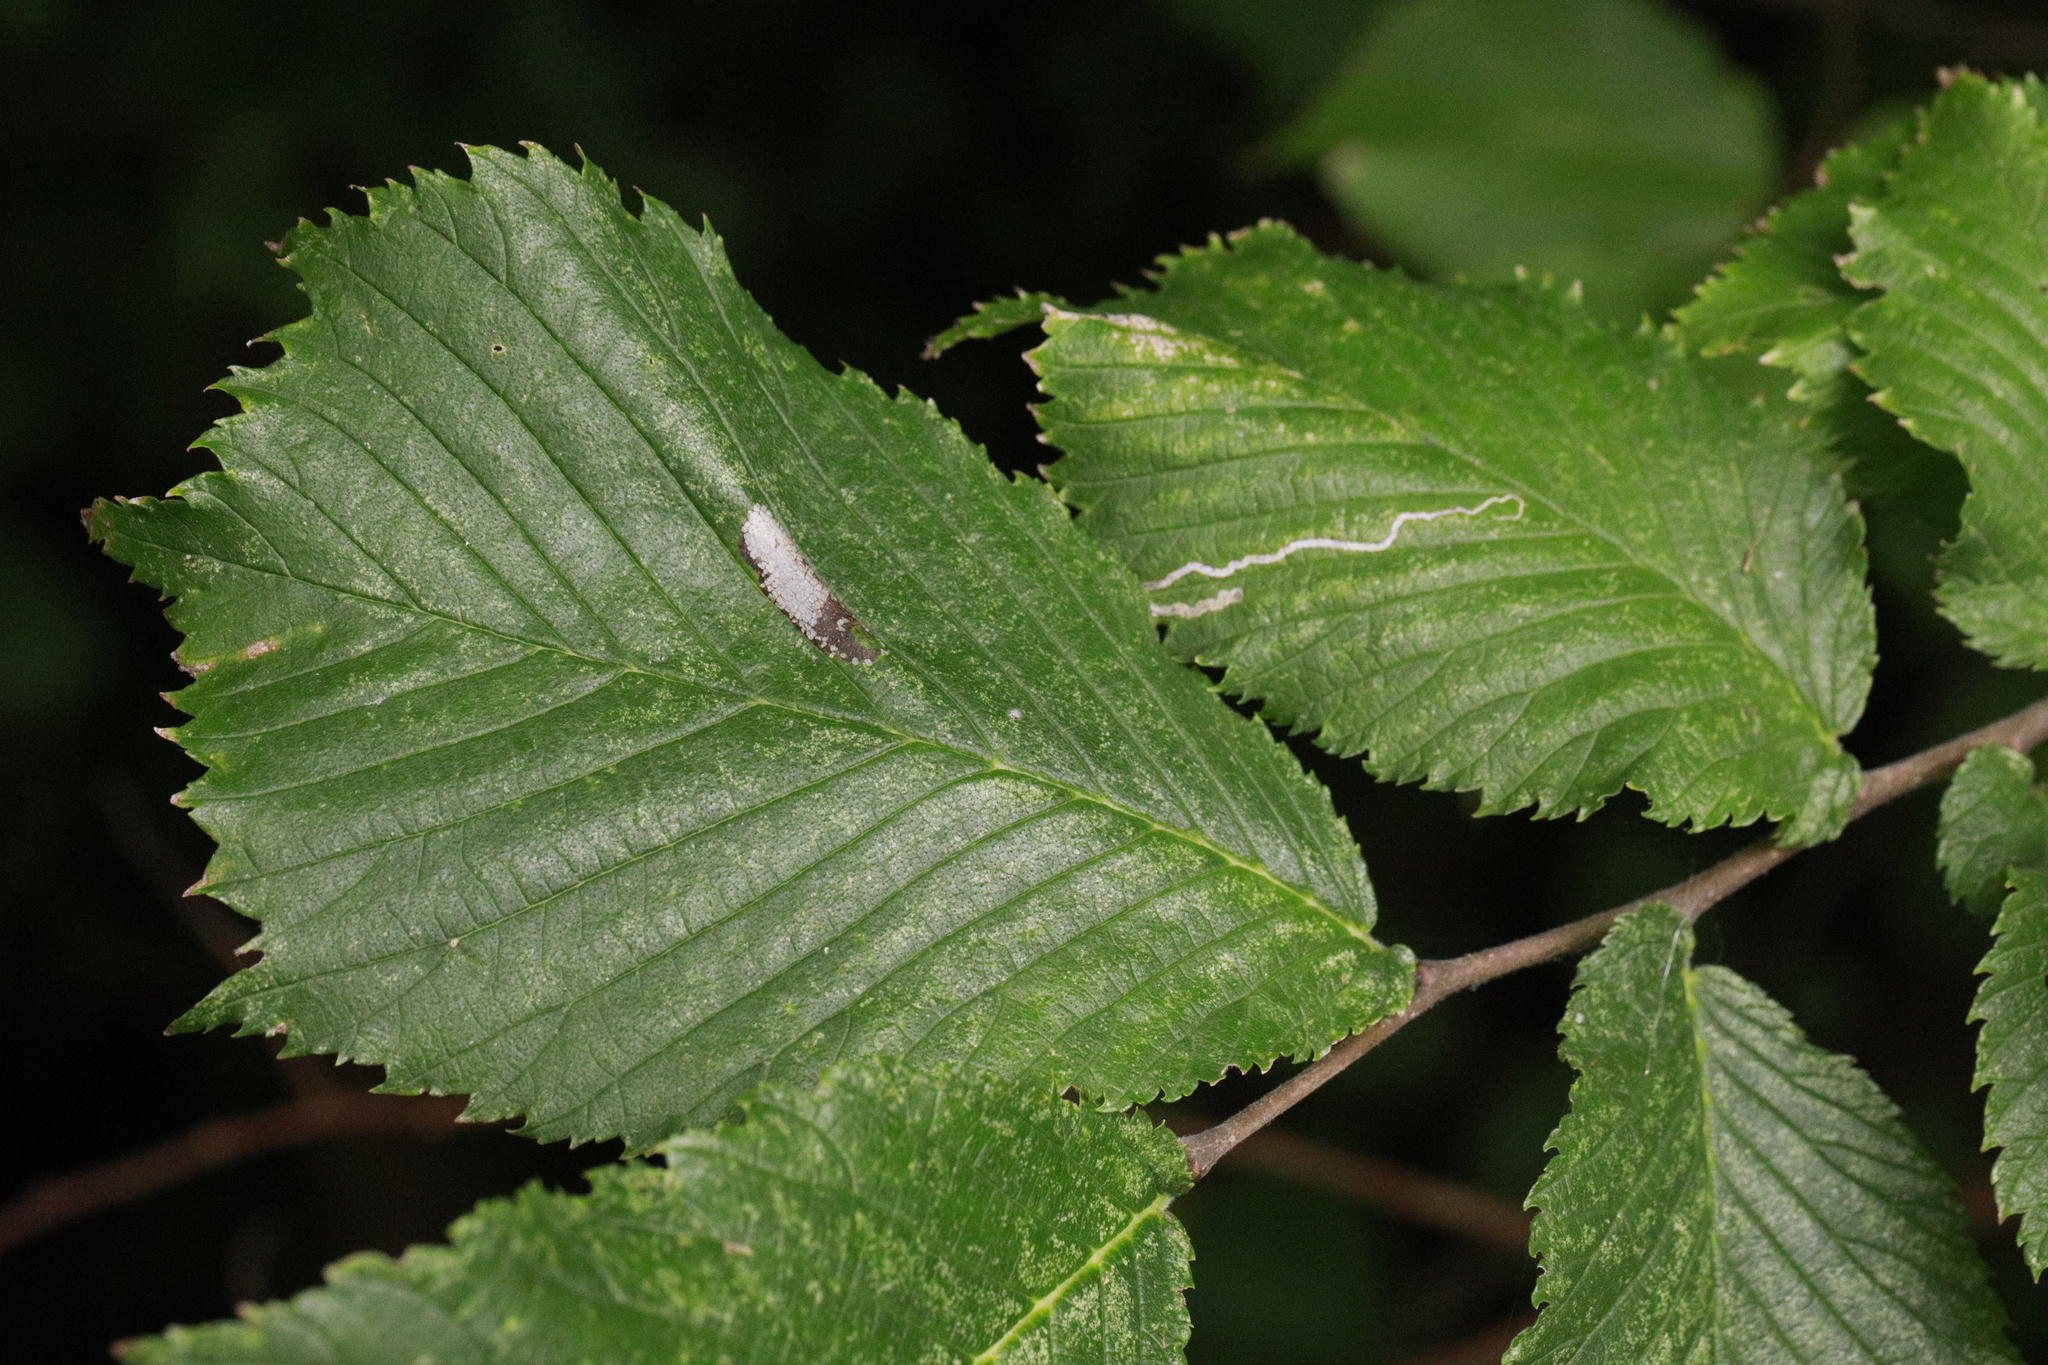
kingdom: Animalia
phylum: Arthropoda
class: Insecta
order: Lepidoptera
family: Nepticulidae
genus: Stigmella
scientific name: Stigmella ulmivora
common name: Barred elm pigmy
